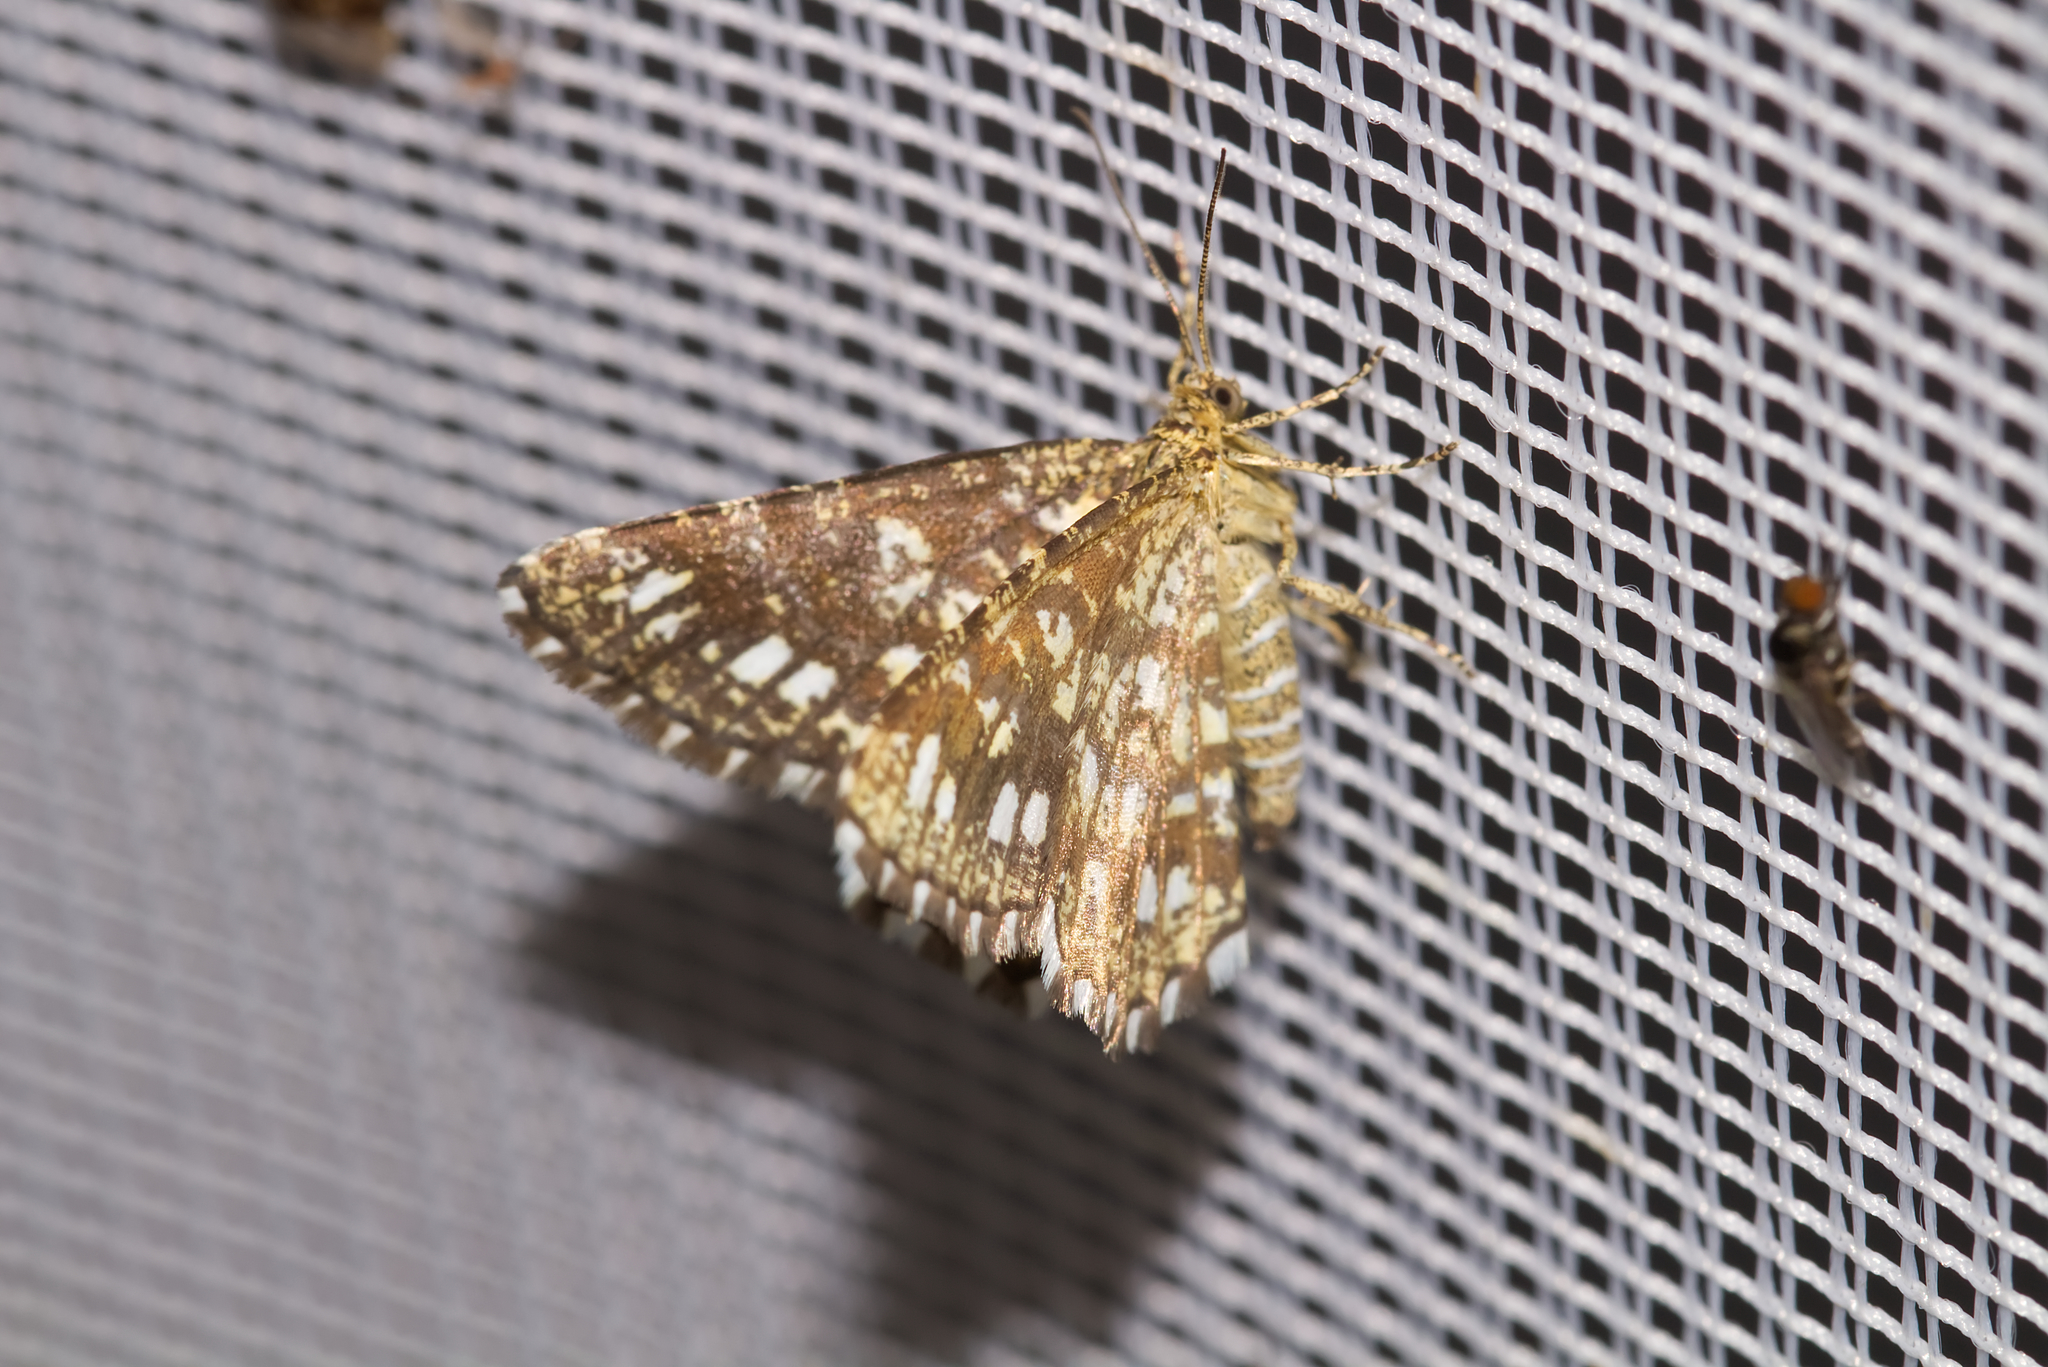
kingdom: Animalia
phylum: Arthropoda
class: Insecta
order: Lepidoptera
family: Geometridae
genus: Chiasmia
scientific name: Chiasmia clathrata
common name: Latticed heath
